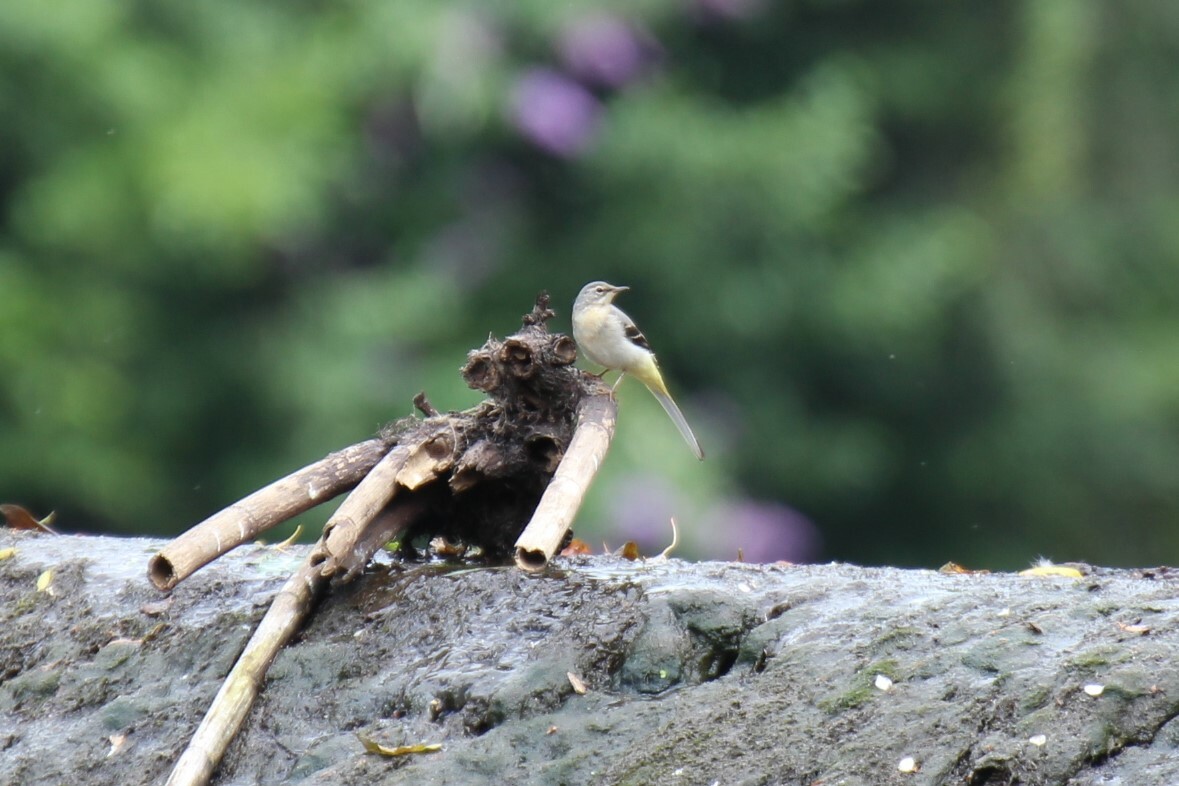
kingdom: Animalia
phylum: Chordata
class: Aves
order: Passeriformes
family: Motacillidae
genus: Motacilla
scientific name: Motacilla cinerea
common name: Grey wagtail
